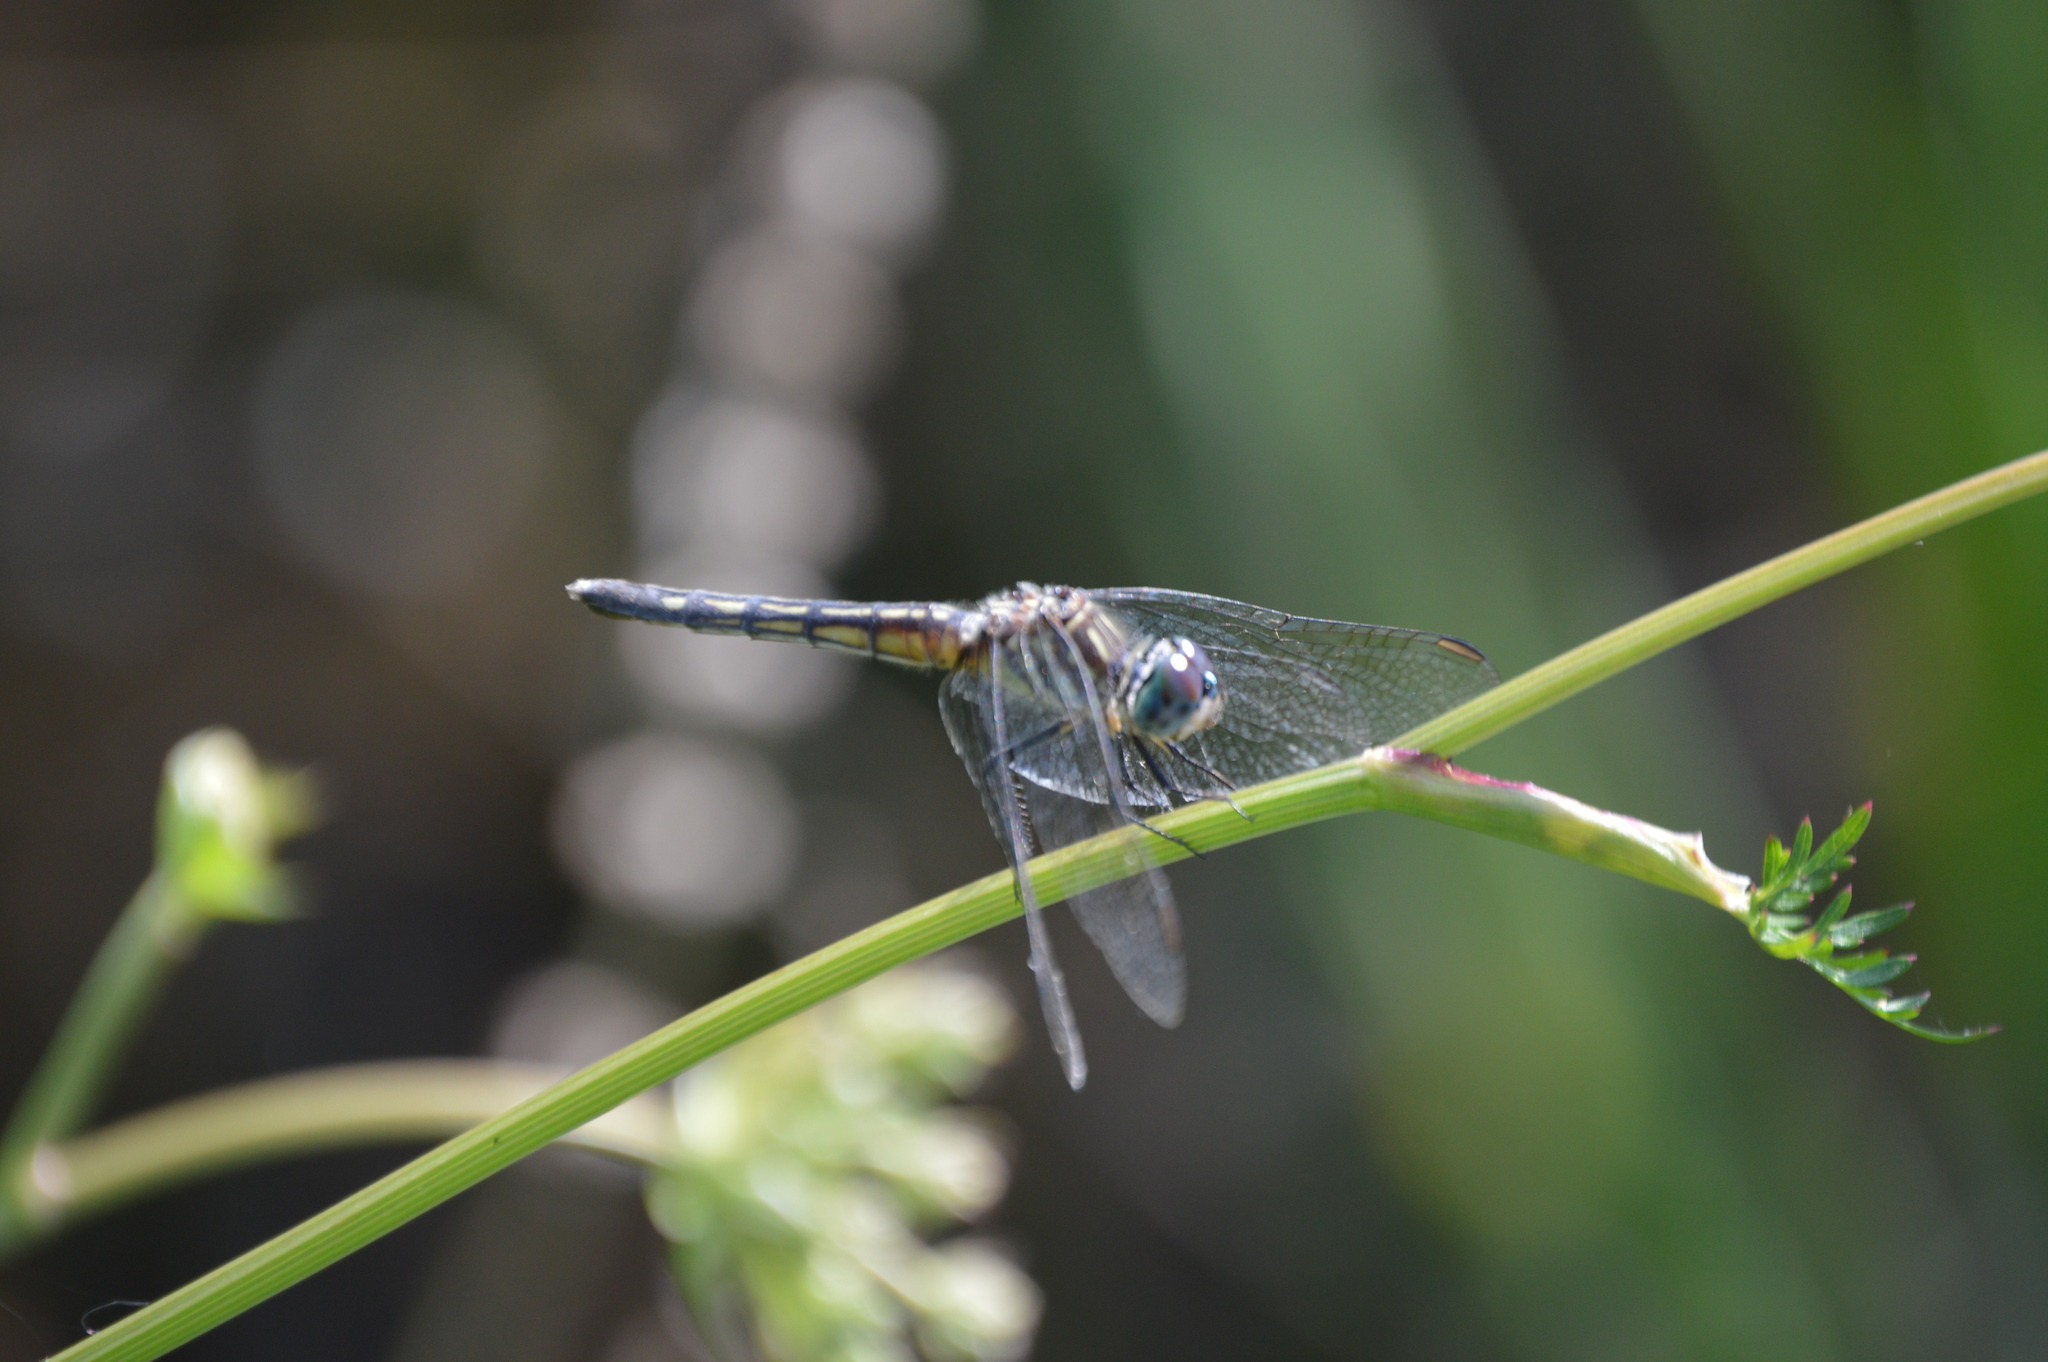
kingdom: Animalia
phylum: Arthropoda
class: Insecta
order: Odonata
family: Libellulidae
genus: Pachydiplax
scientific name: Pachydiplax longipennis
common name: Blue dasher
